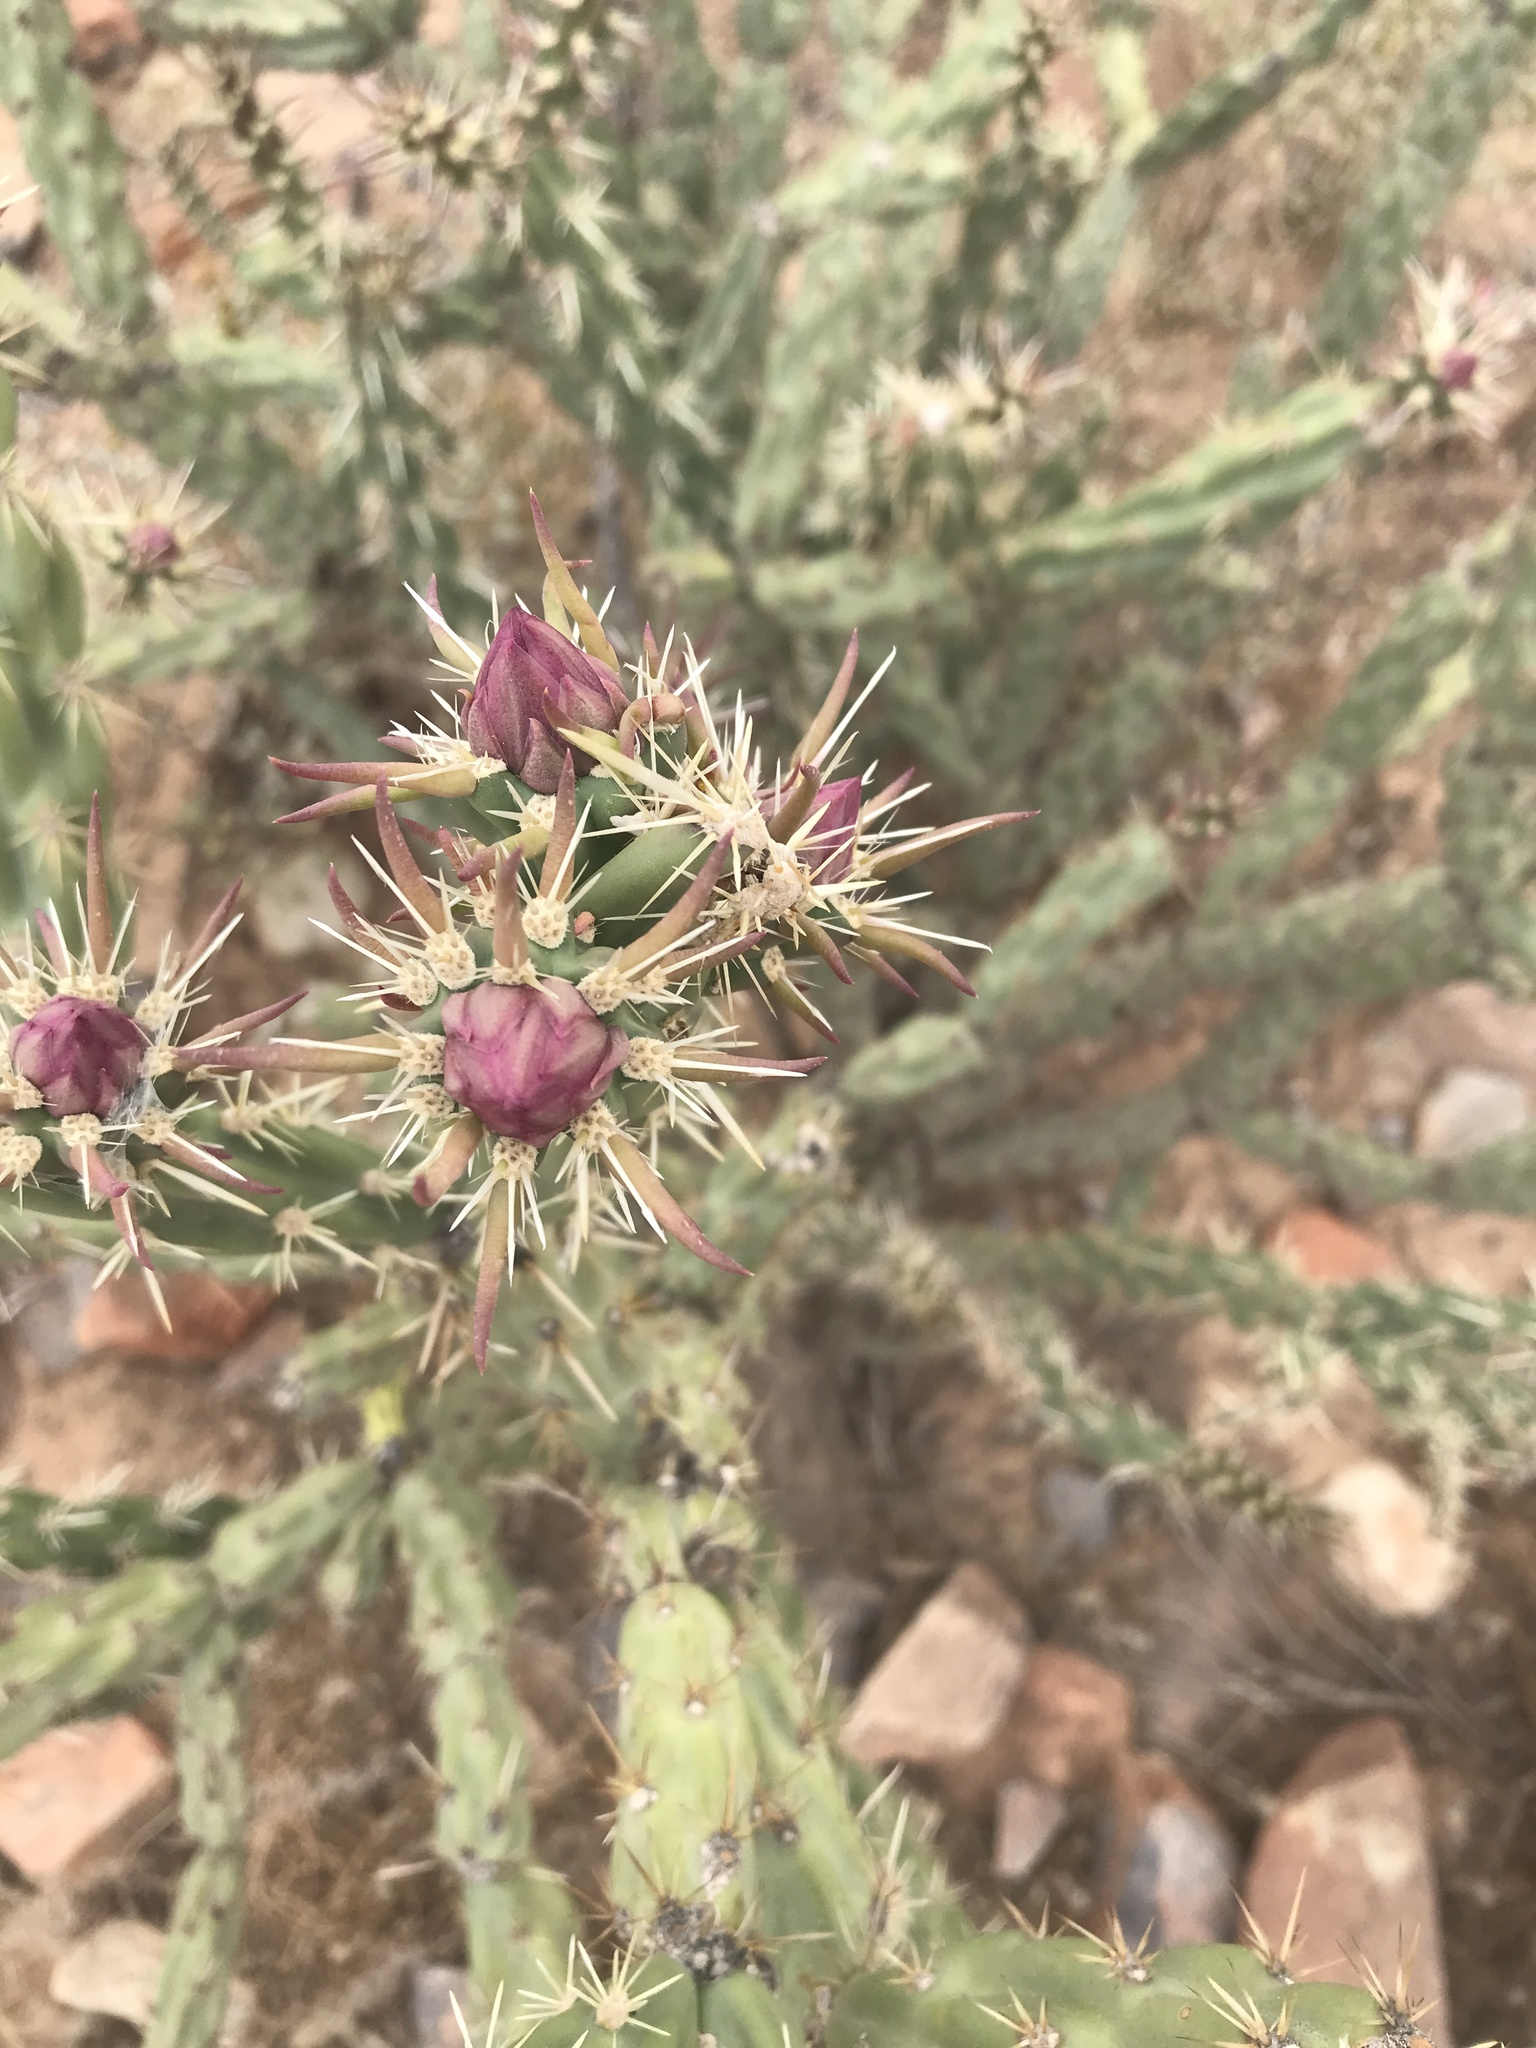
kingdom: Plantae
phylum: Tracheophyta
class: Magnoliopsida
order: Caryophyllales
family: Cactaceae
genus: Cylindropuntia
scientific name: Cylindropuntia acanthocarpa
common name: Buckhorn cholla
